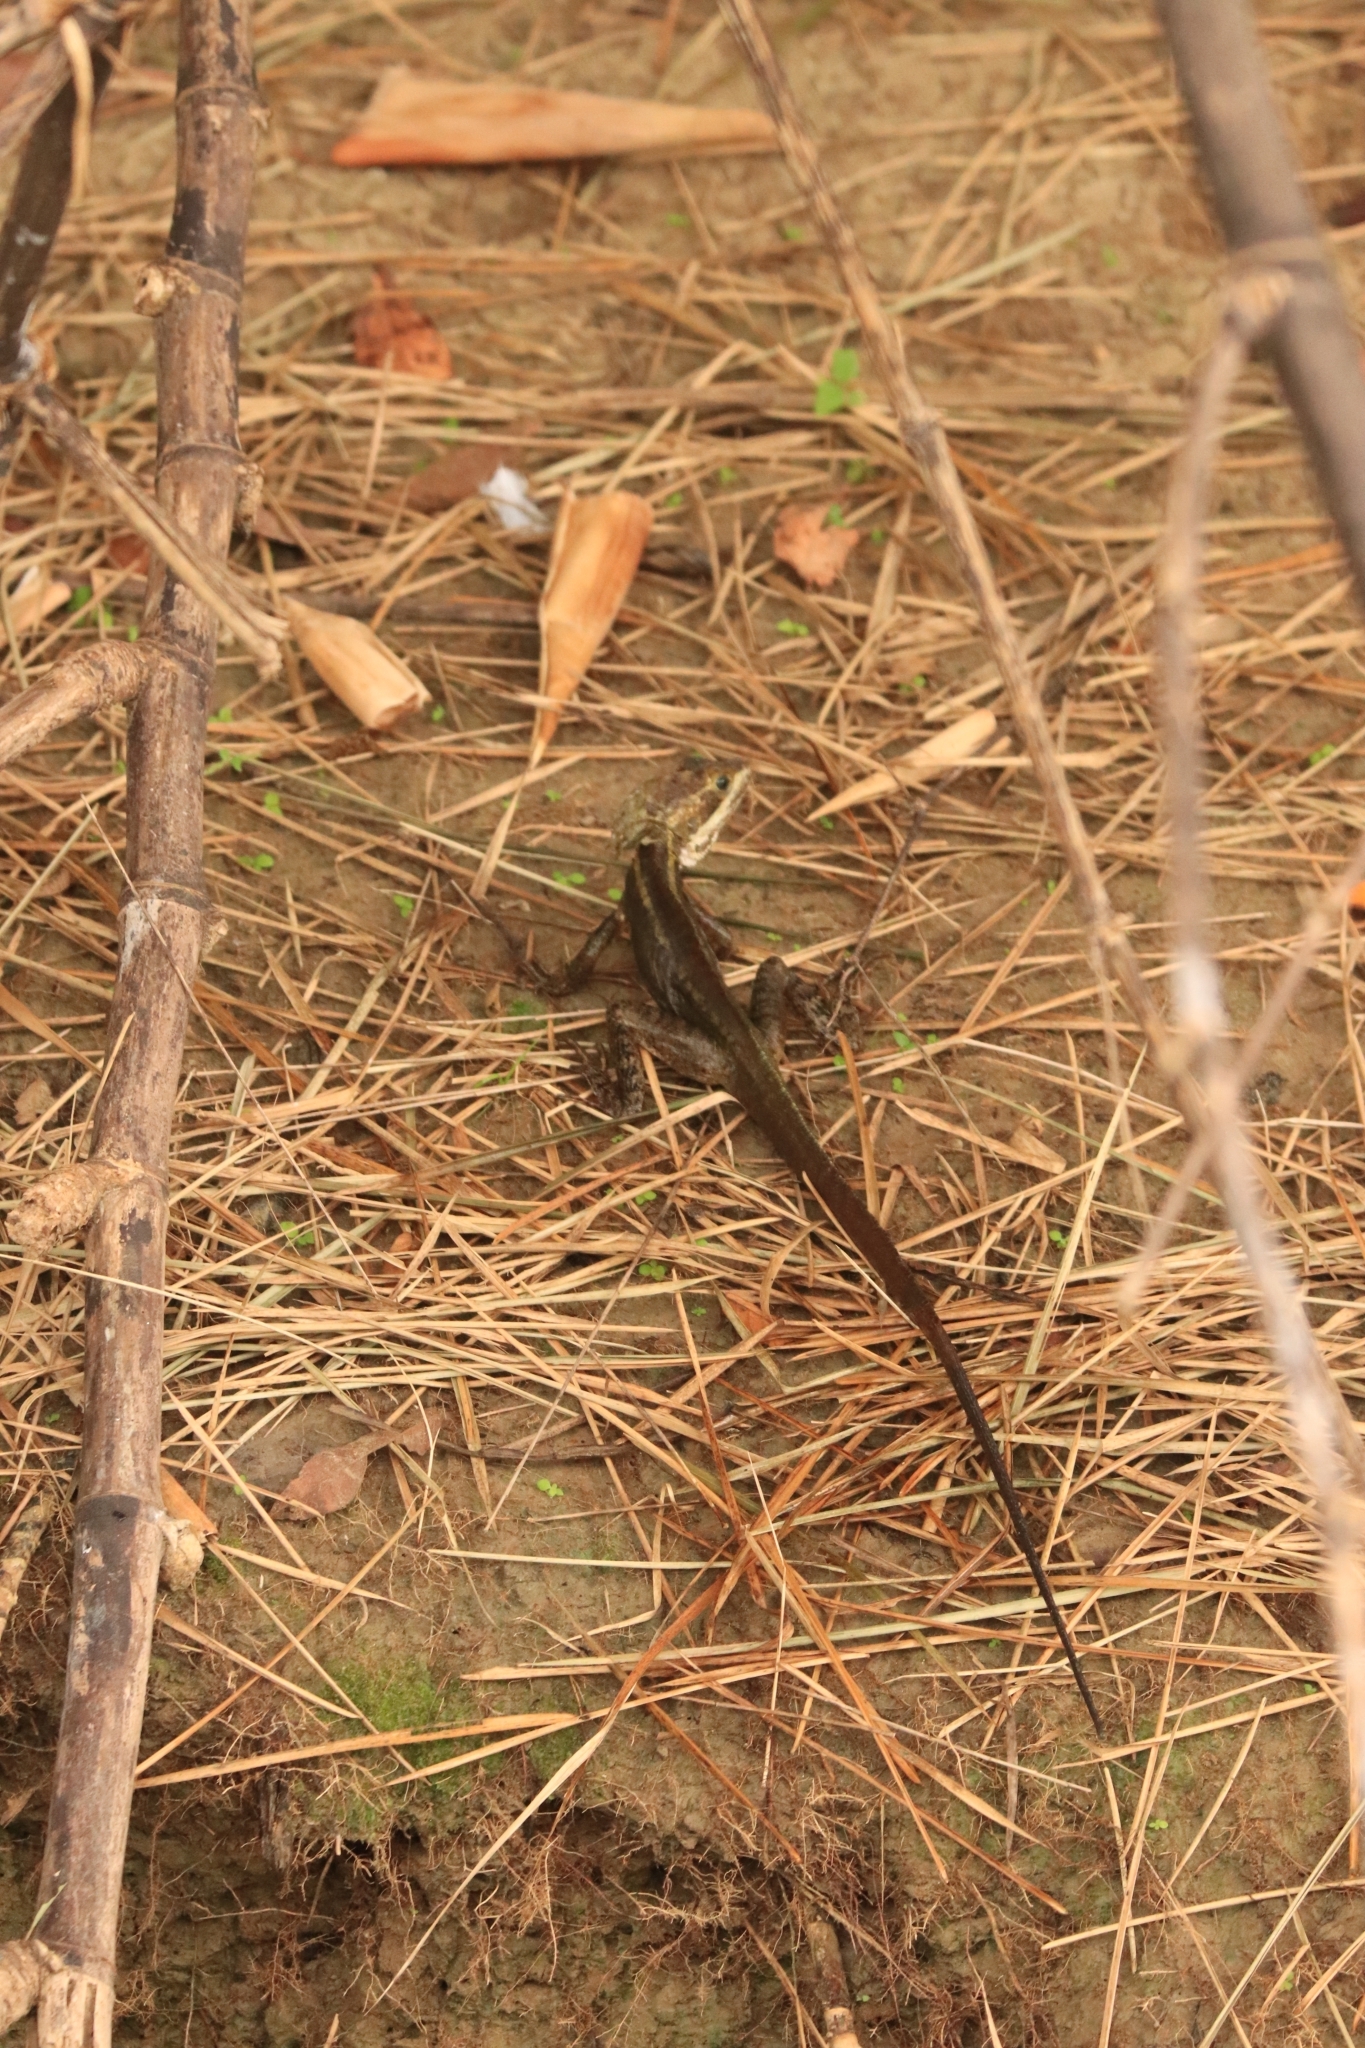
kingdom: Animalia
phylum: Chordata
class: Squamata
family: Corytophanidae
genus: Basiliscus
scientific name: Basiliscus vittatus
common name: Brown basilisk
